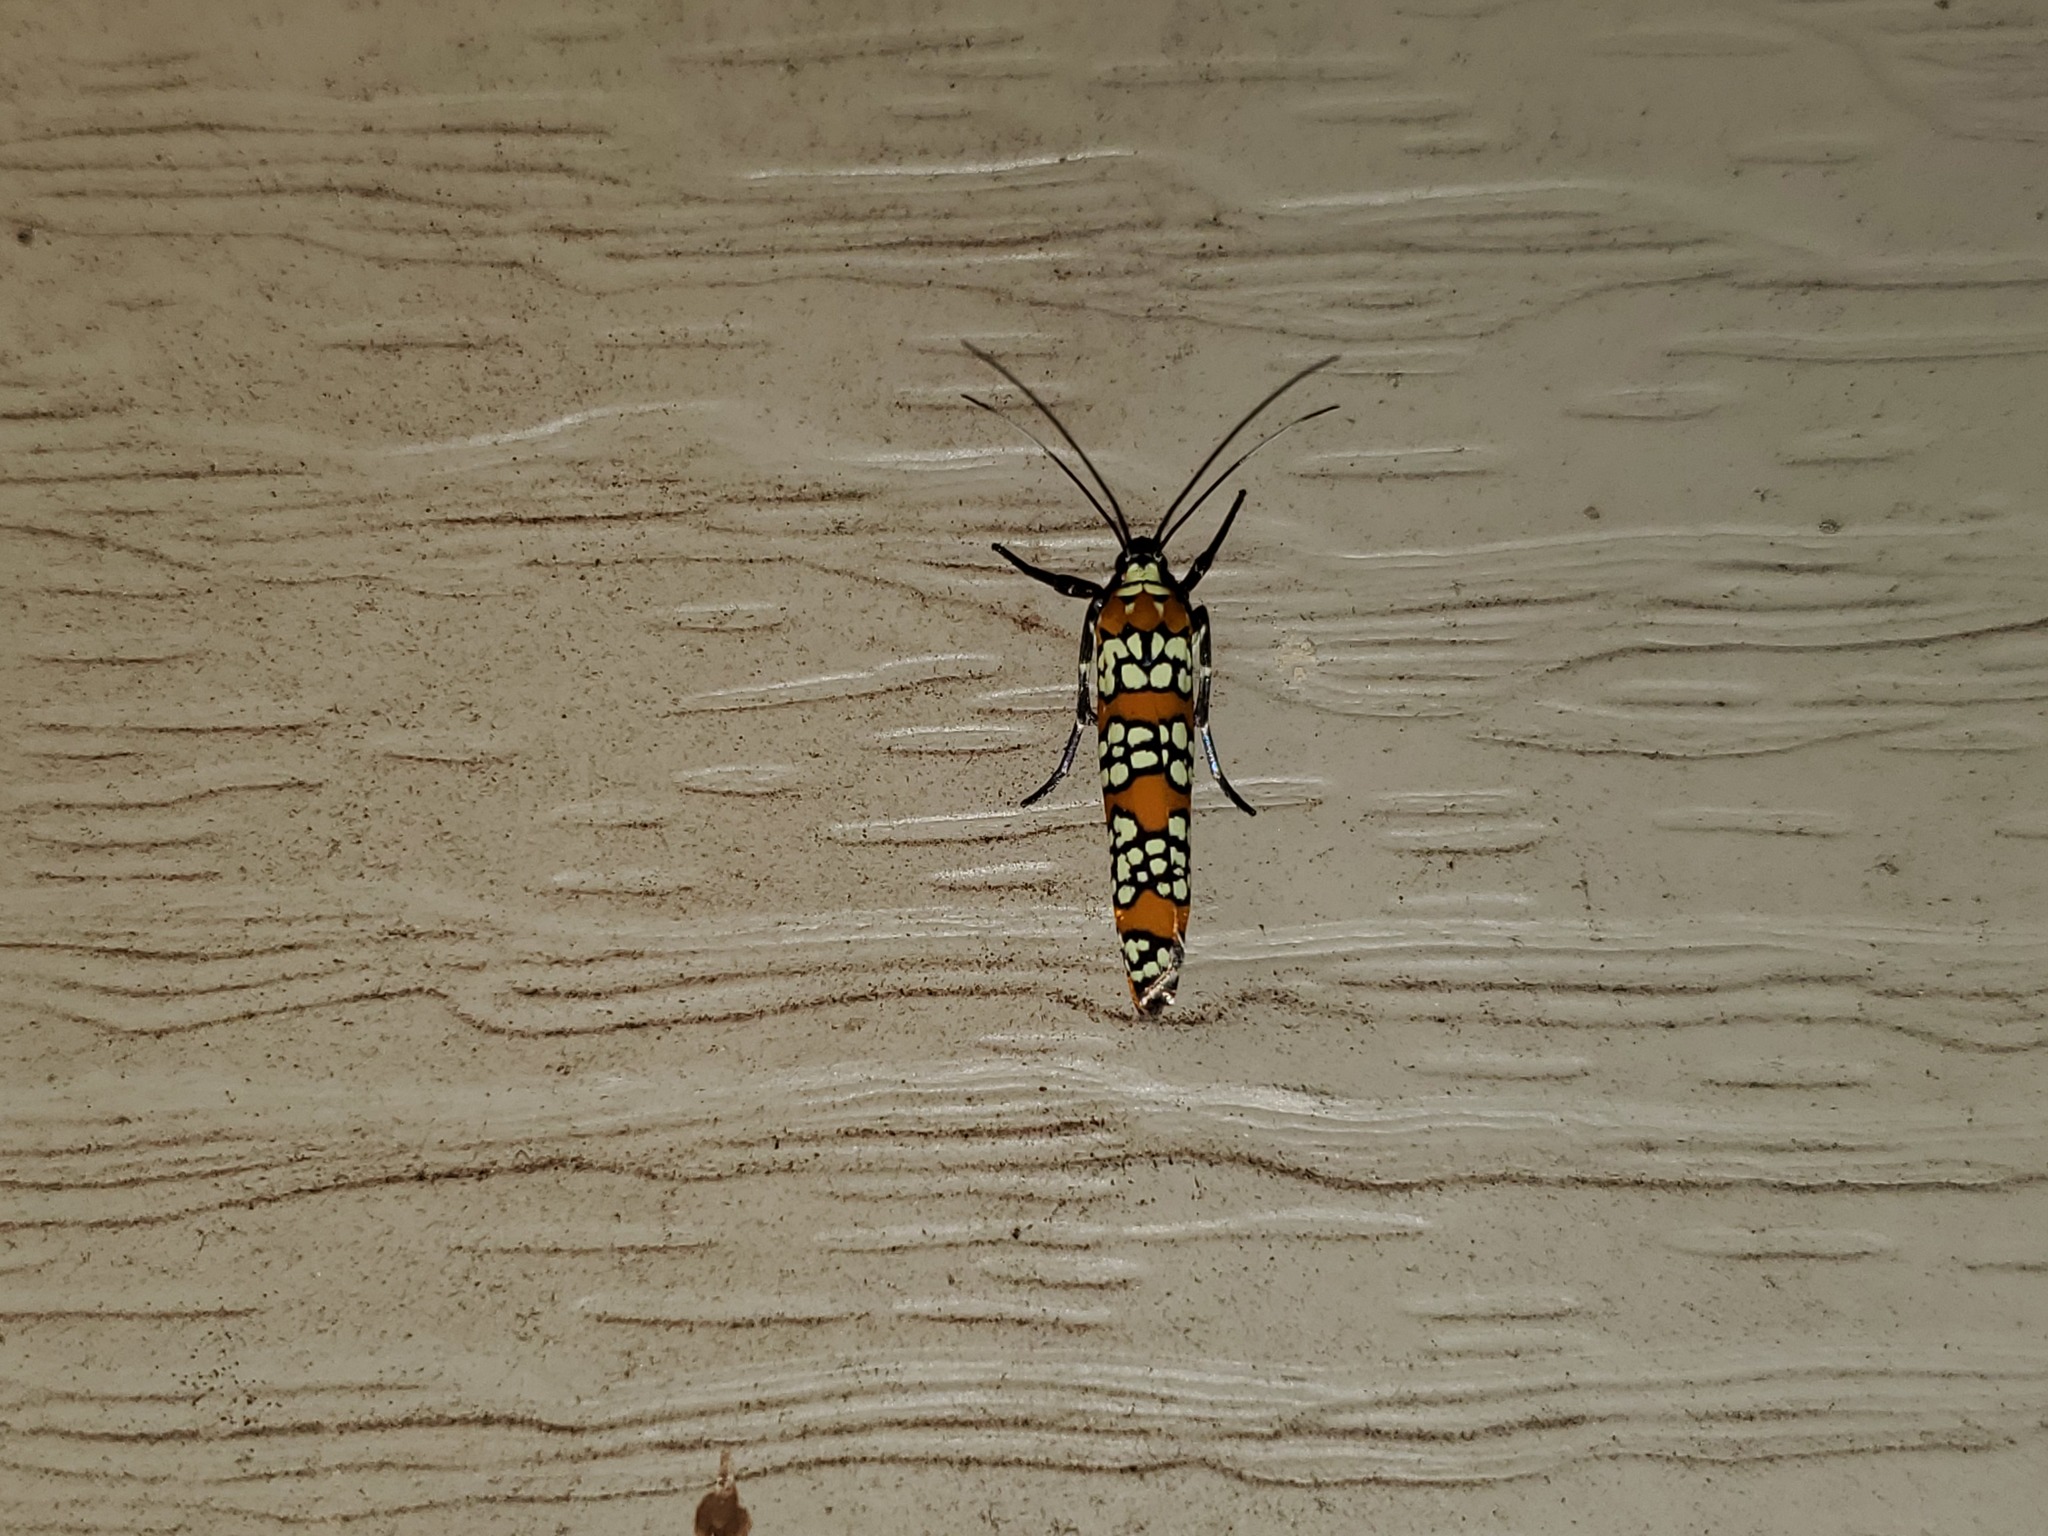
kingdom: Animalia
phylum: Arthropoda
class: Insecta
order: Lepidoptera
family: Attevidae
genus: Atteva
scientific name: Atteva punctella
